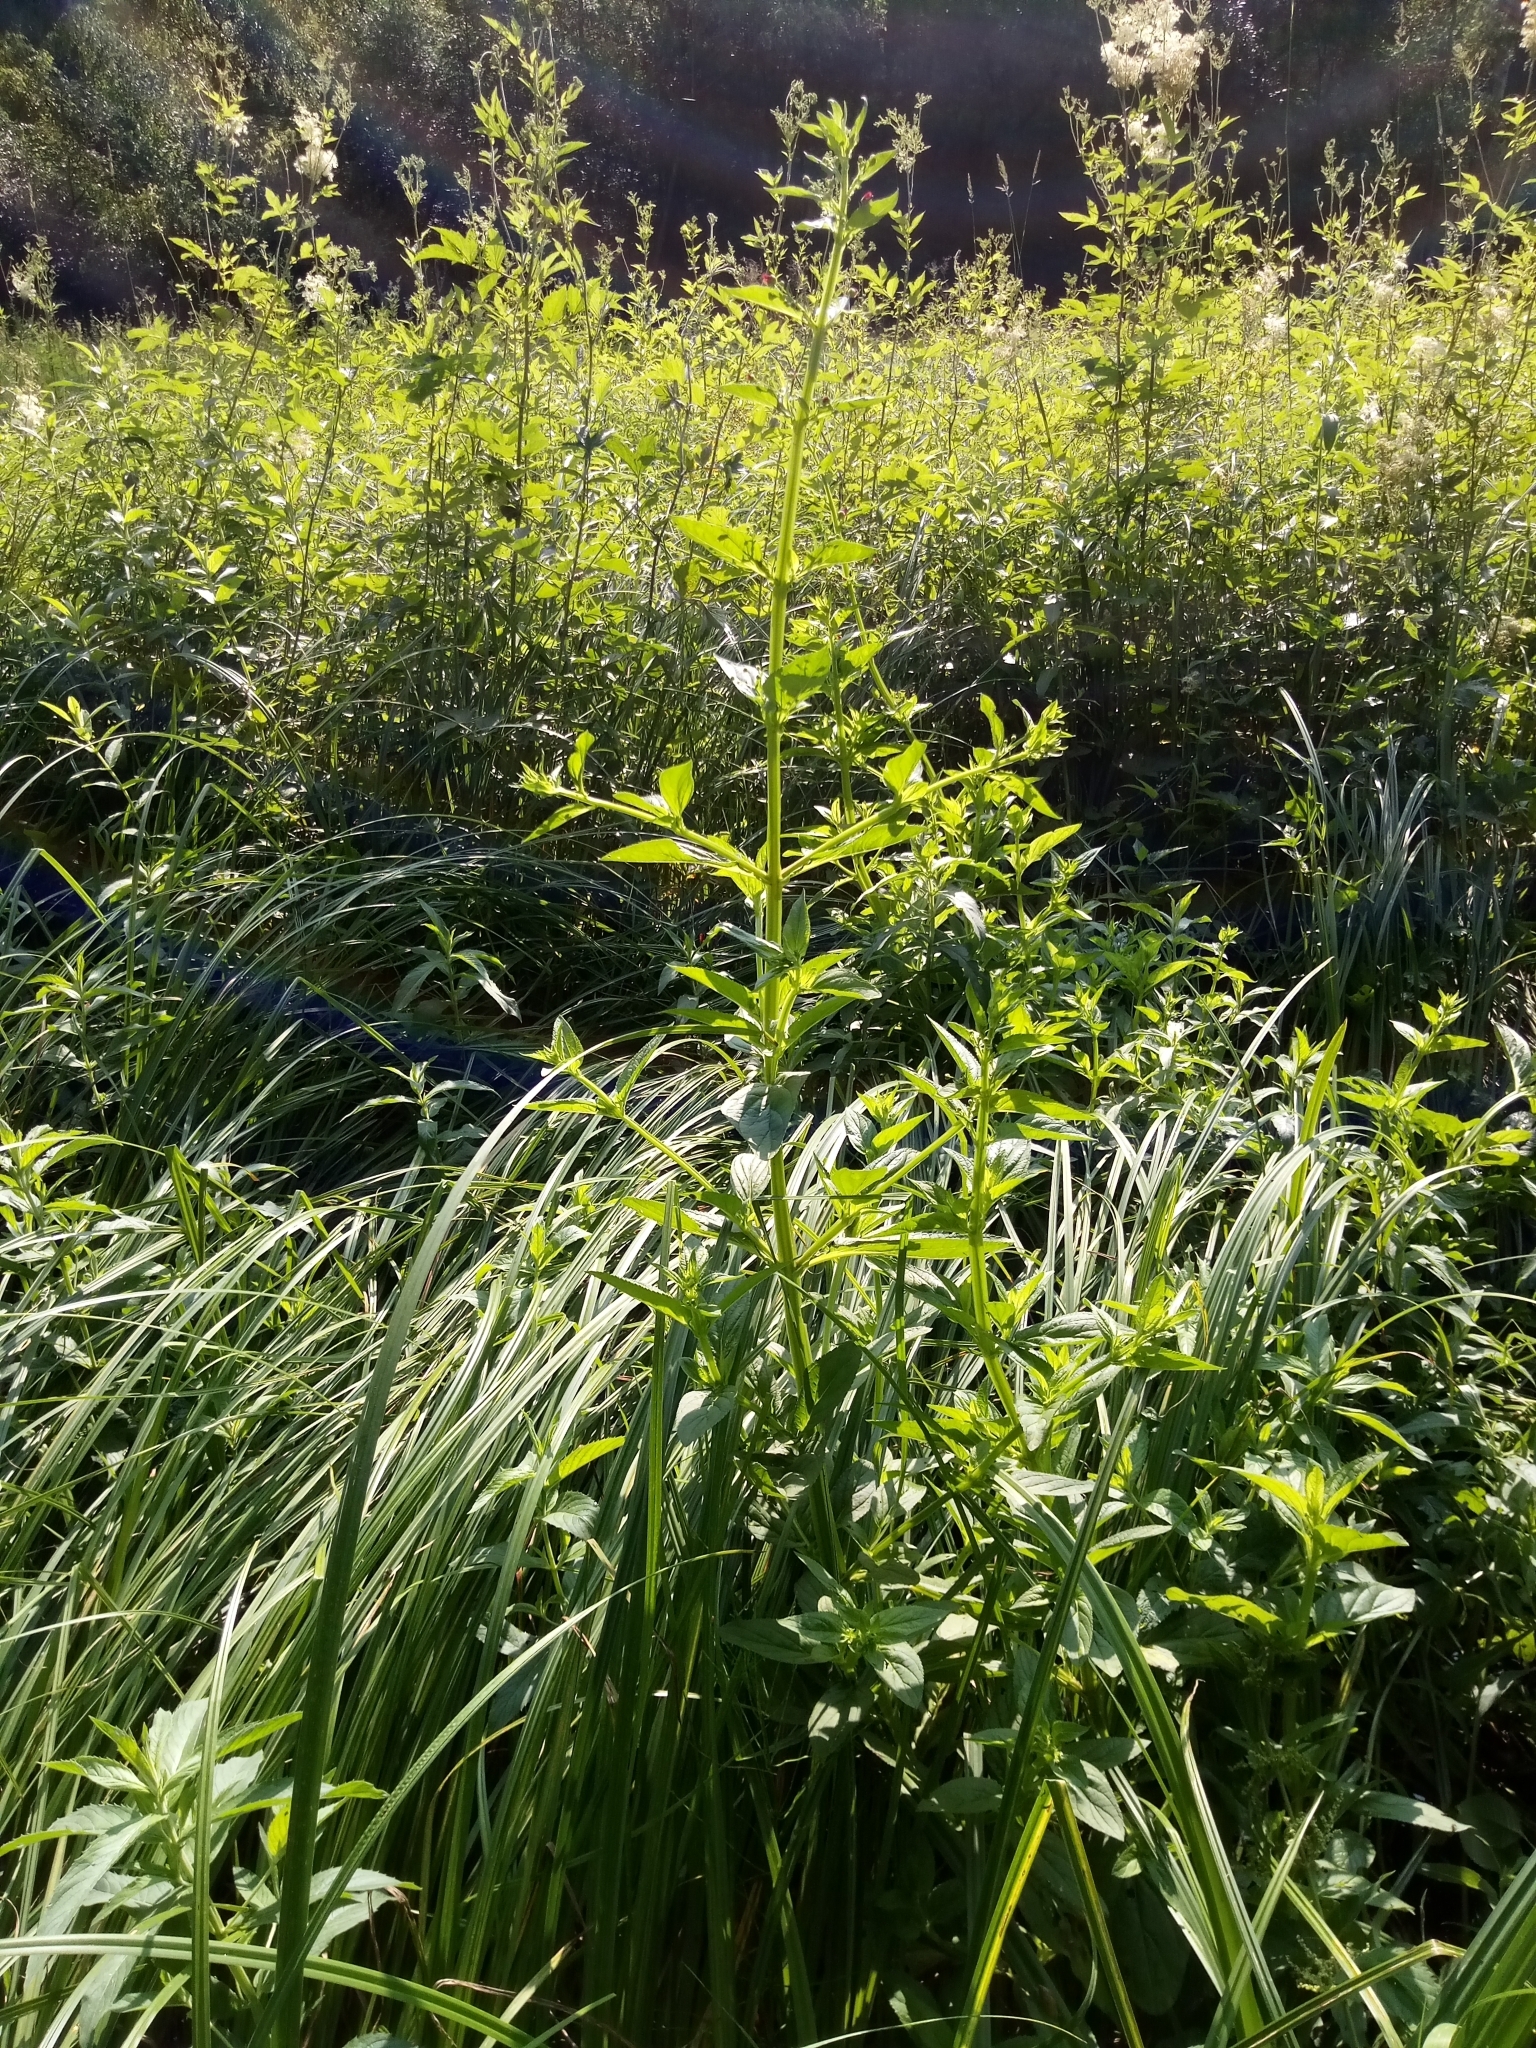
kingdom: Plantae
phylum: Tracheophyta
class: Magnoliopsida
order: Lamiales
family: Scrophulariaceae
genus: Scrophularia
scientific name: Scrophularia umbrosa
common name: Green figwort
